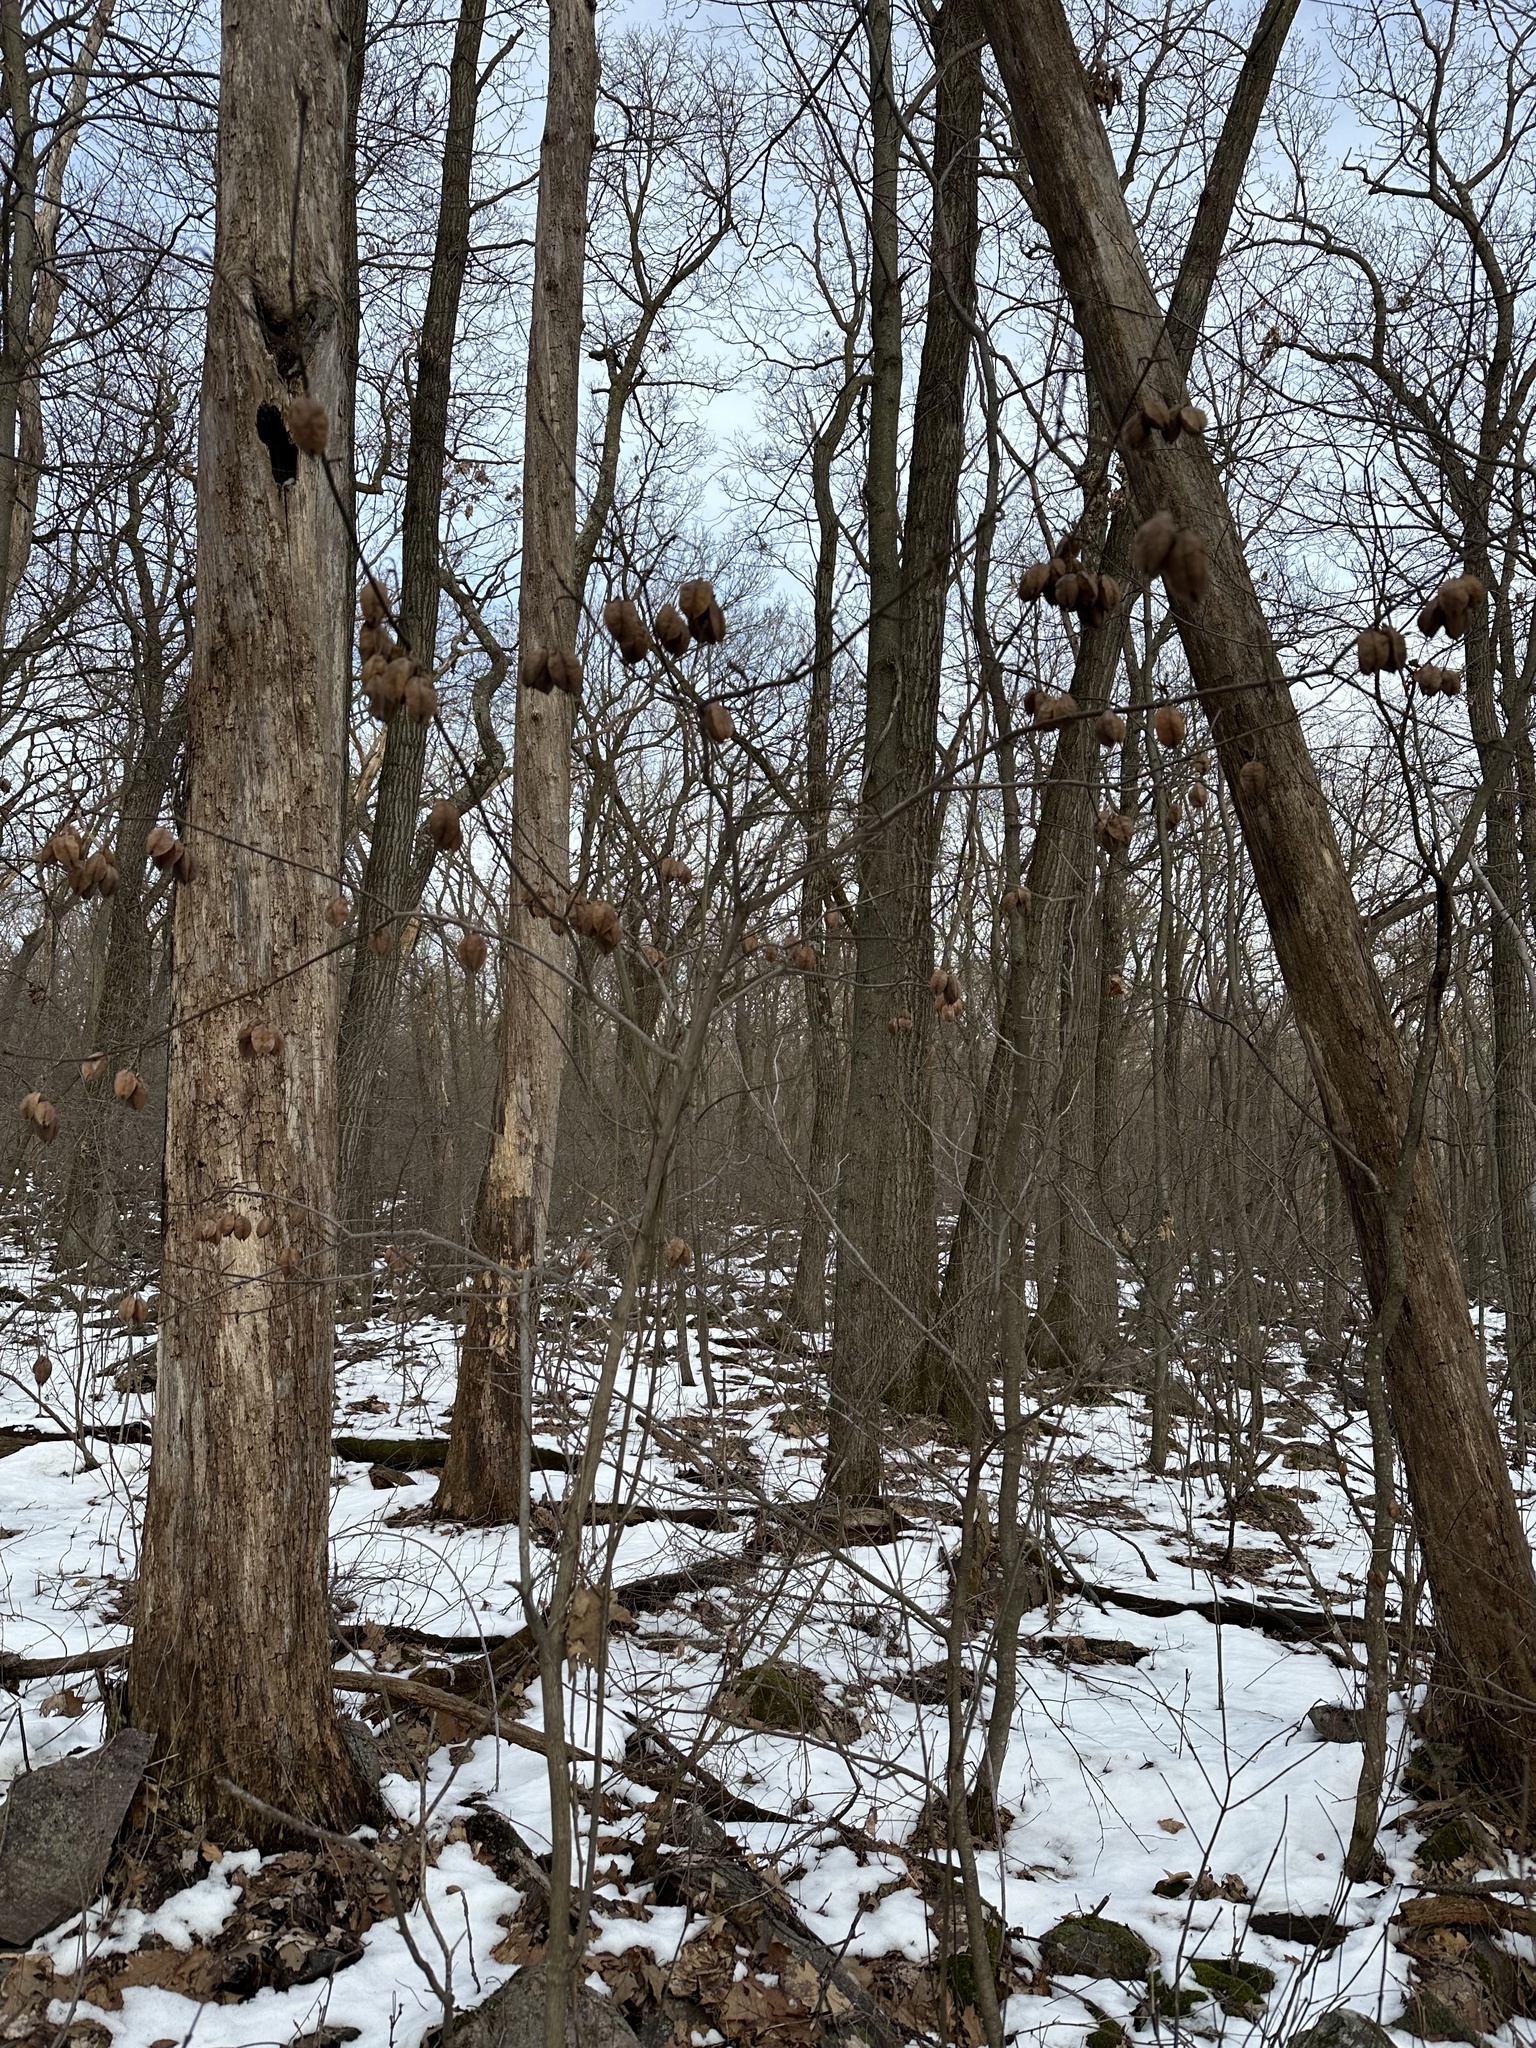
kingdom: Plantae
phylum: Tracheophyta
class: Magnoliopsida
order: Crossosomatales
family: Staphyleaceae
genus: Staphylea
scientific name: Staphylea trifolia
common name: American bladdernut
